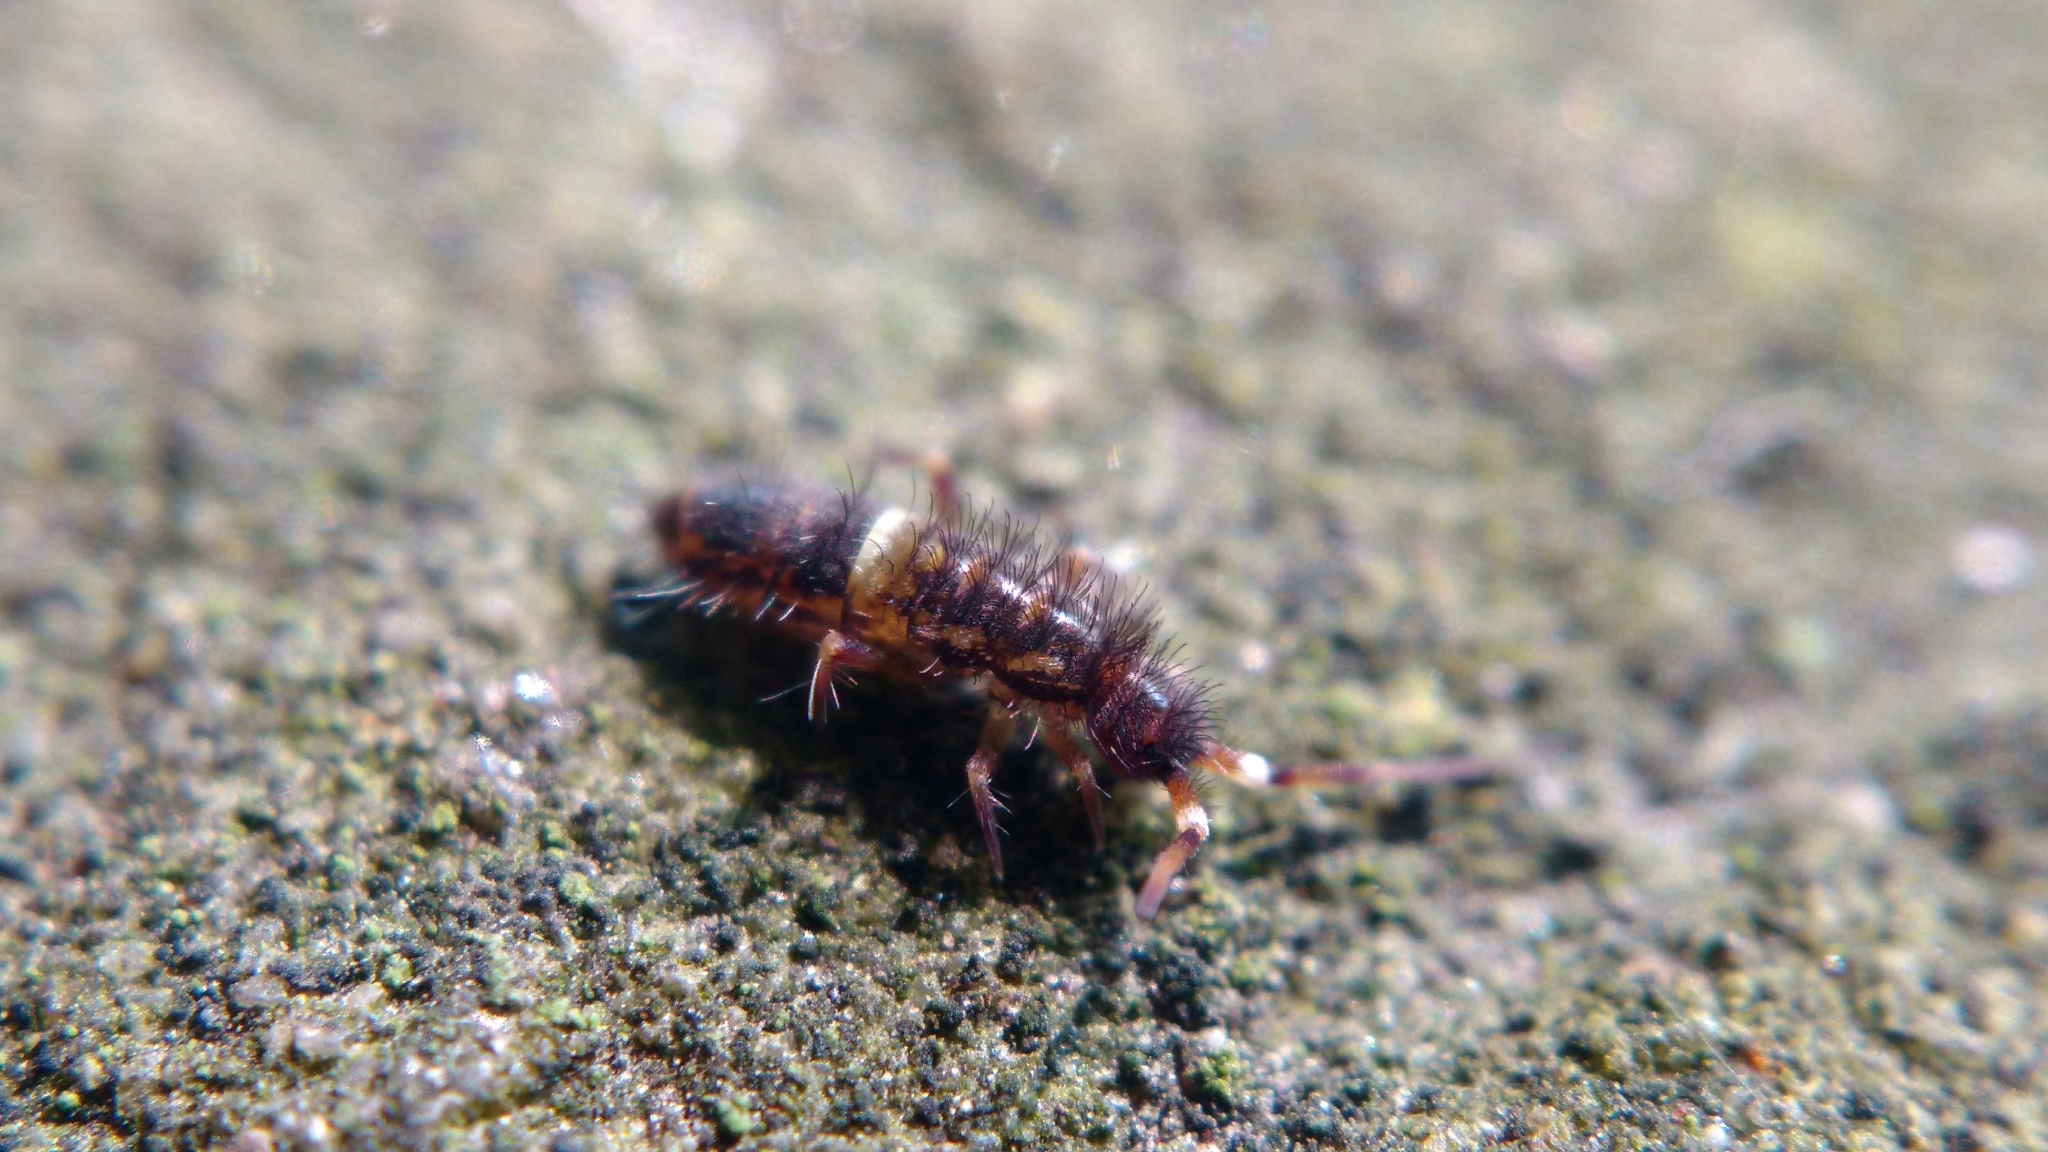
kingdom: Animalia
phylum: Arthropoda
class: Collembola
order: Entomobryomorpha
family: Orchesellidae
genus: Orchesella
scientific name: Orchesella cincta
